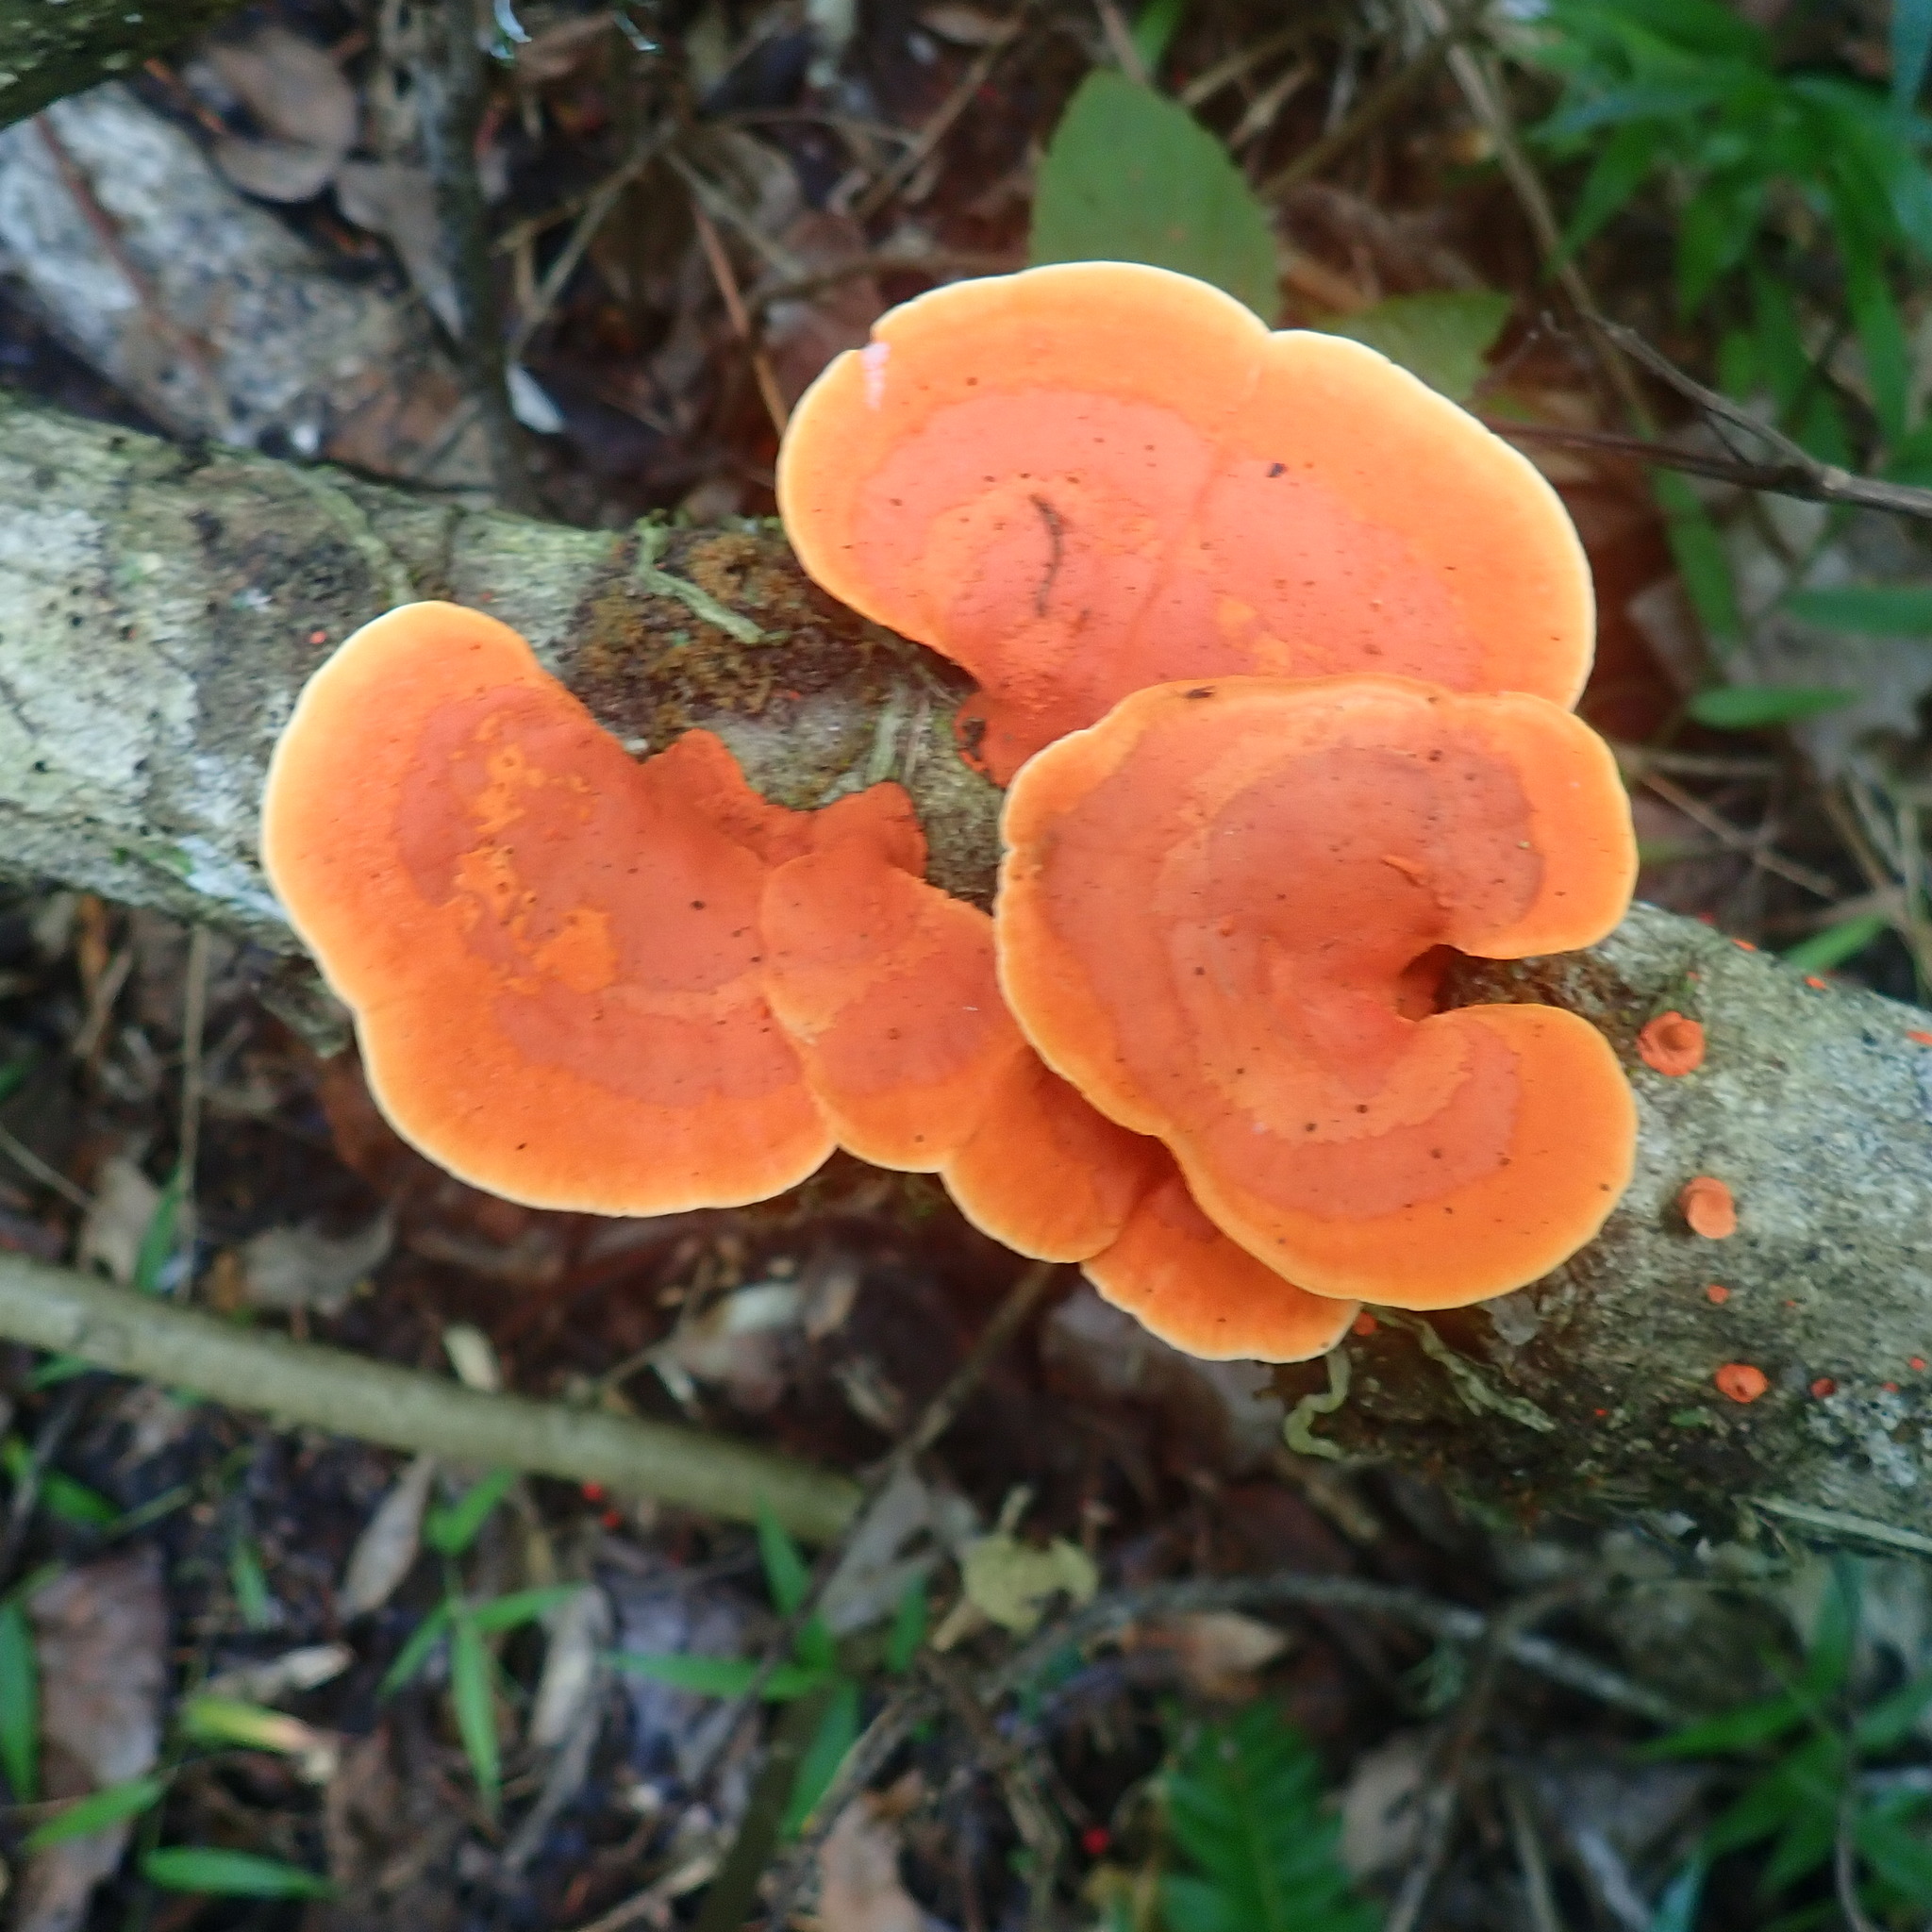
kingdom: Fungi
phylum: Basidiomycota
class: Agaricomycetes
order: Polyporales
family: Polyporaceae
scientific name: Polyporaceae
